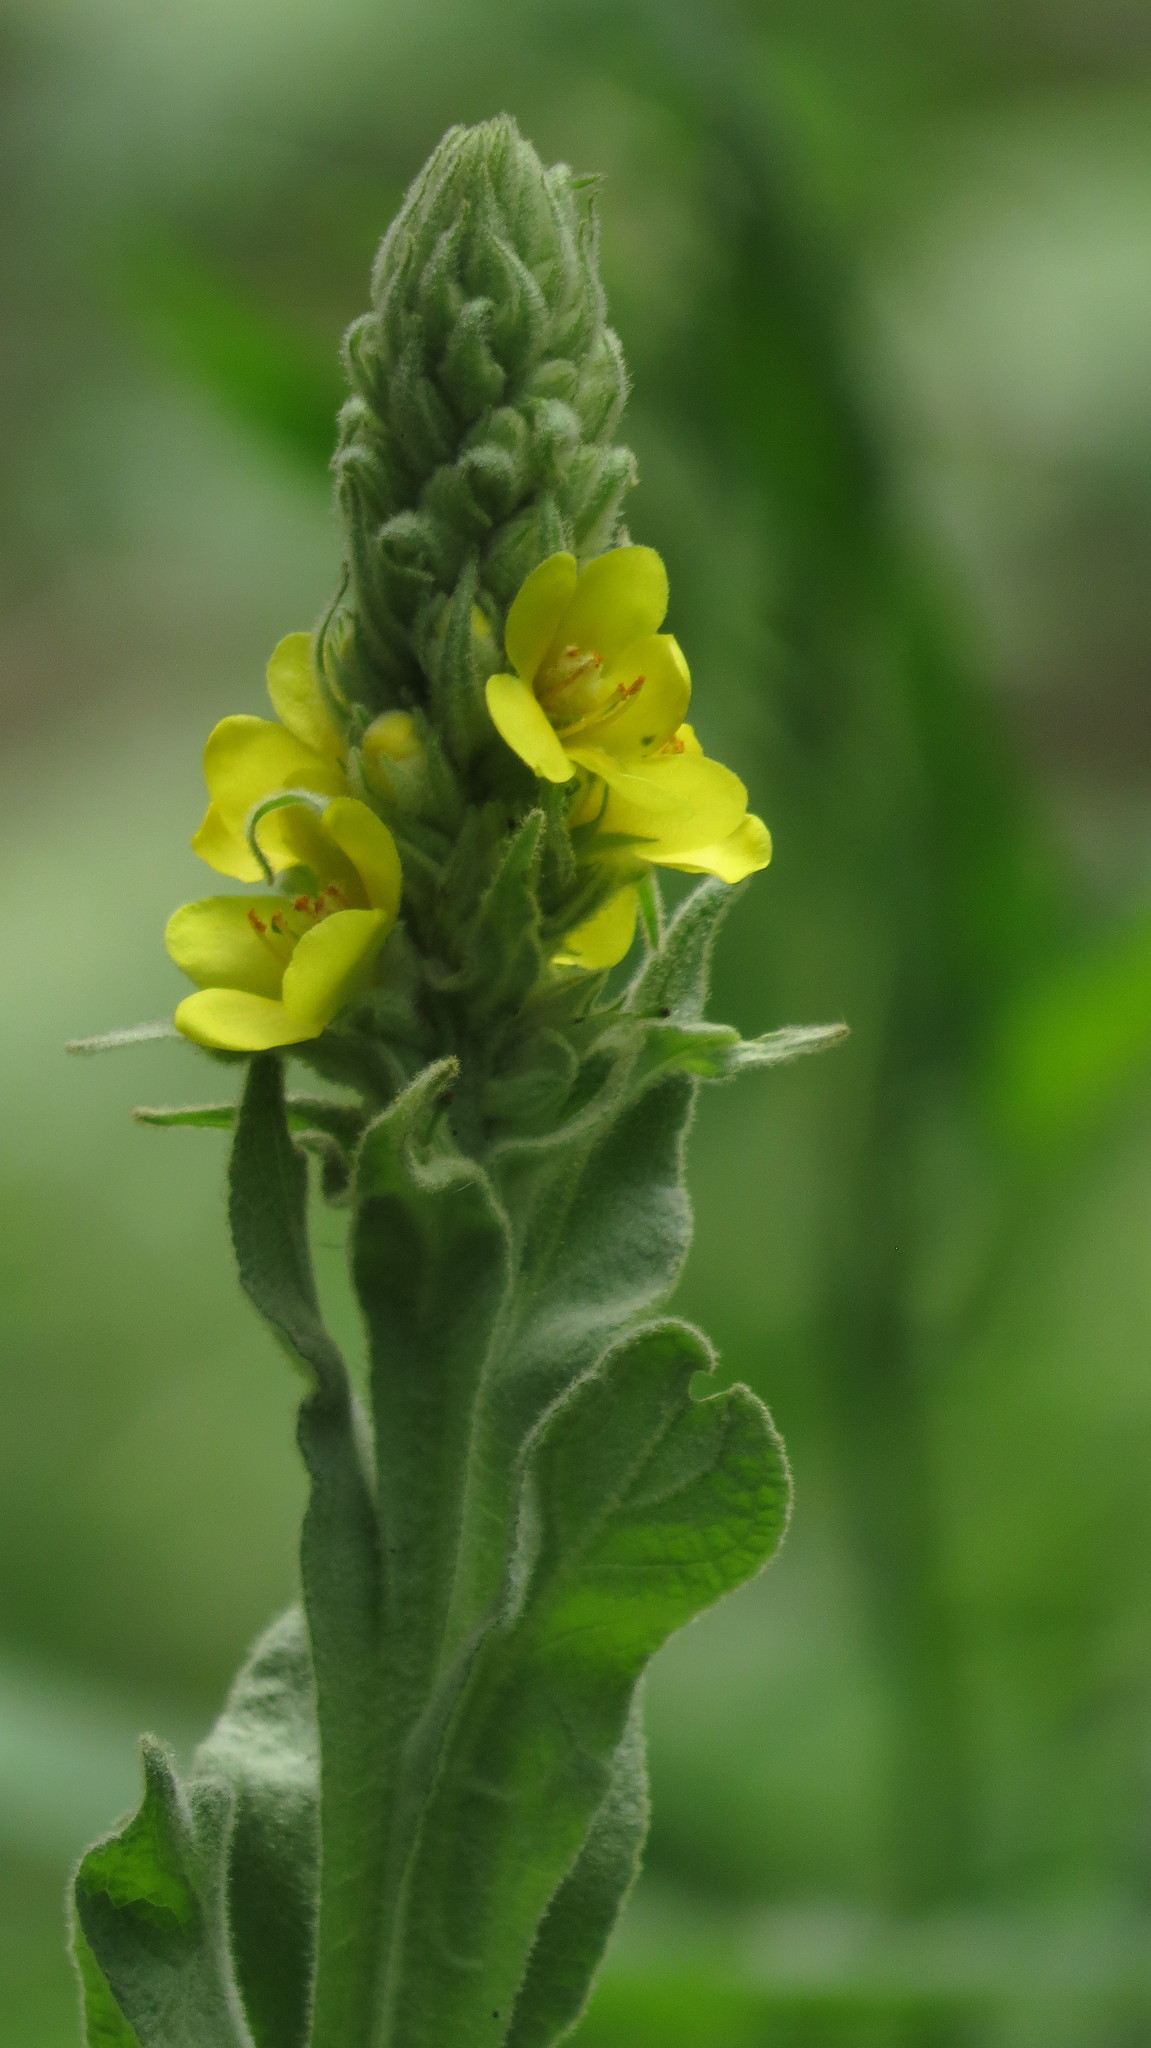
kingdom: Plantae
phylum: Tracheophyta
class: Magnoliopsida
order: Lamiales
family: Scrophulariaceae
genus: Verbascum
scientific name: Verbascum thapsus
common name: Common mullein
